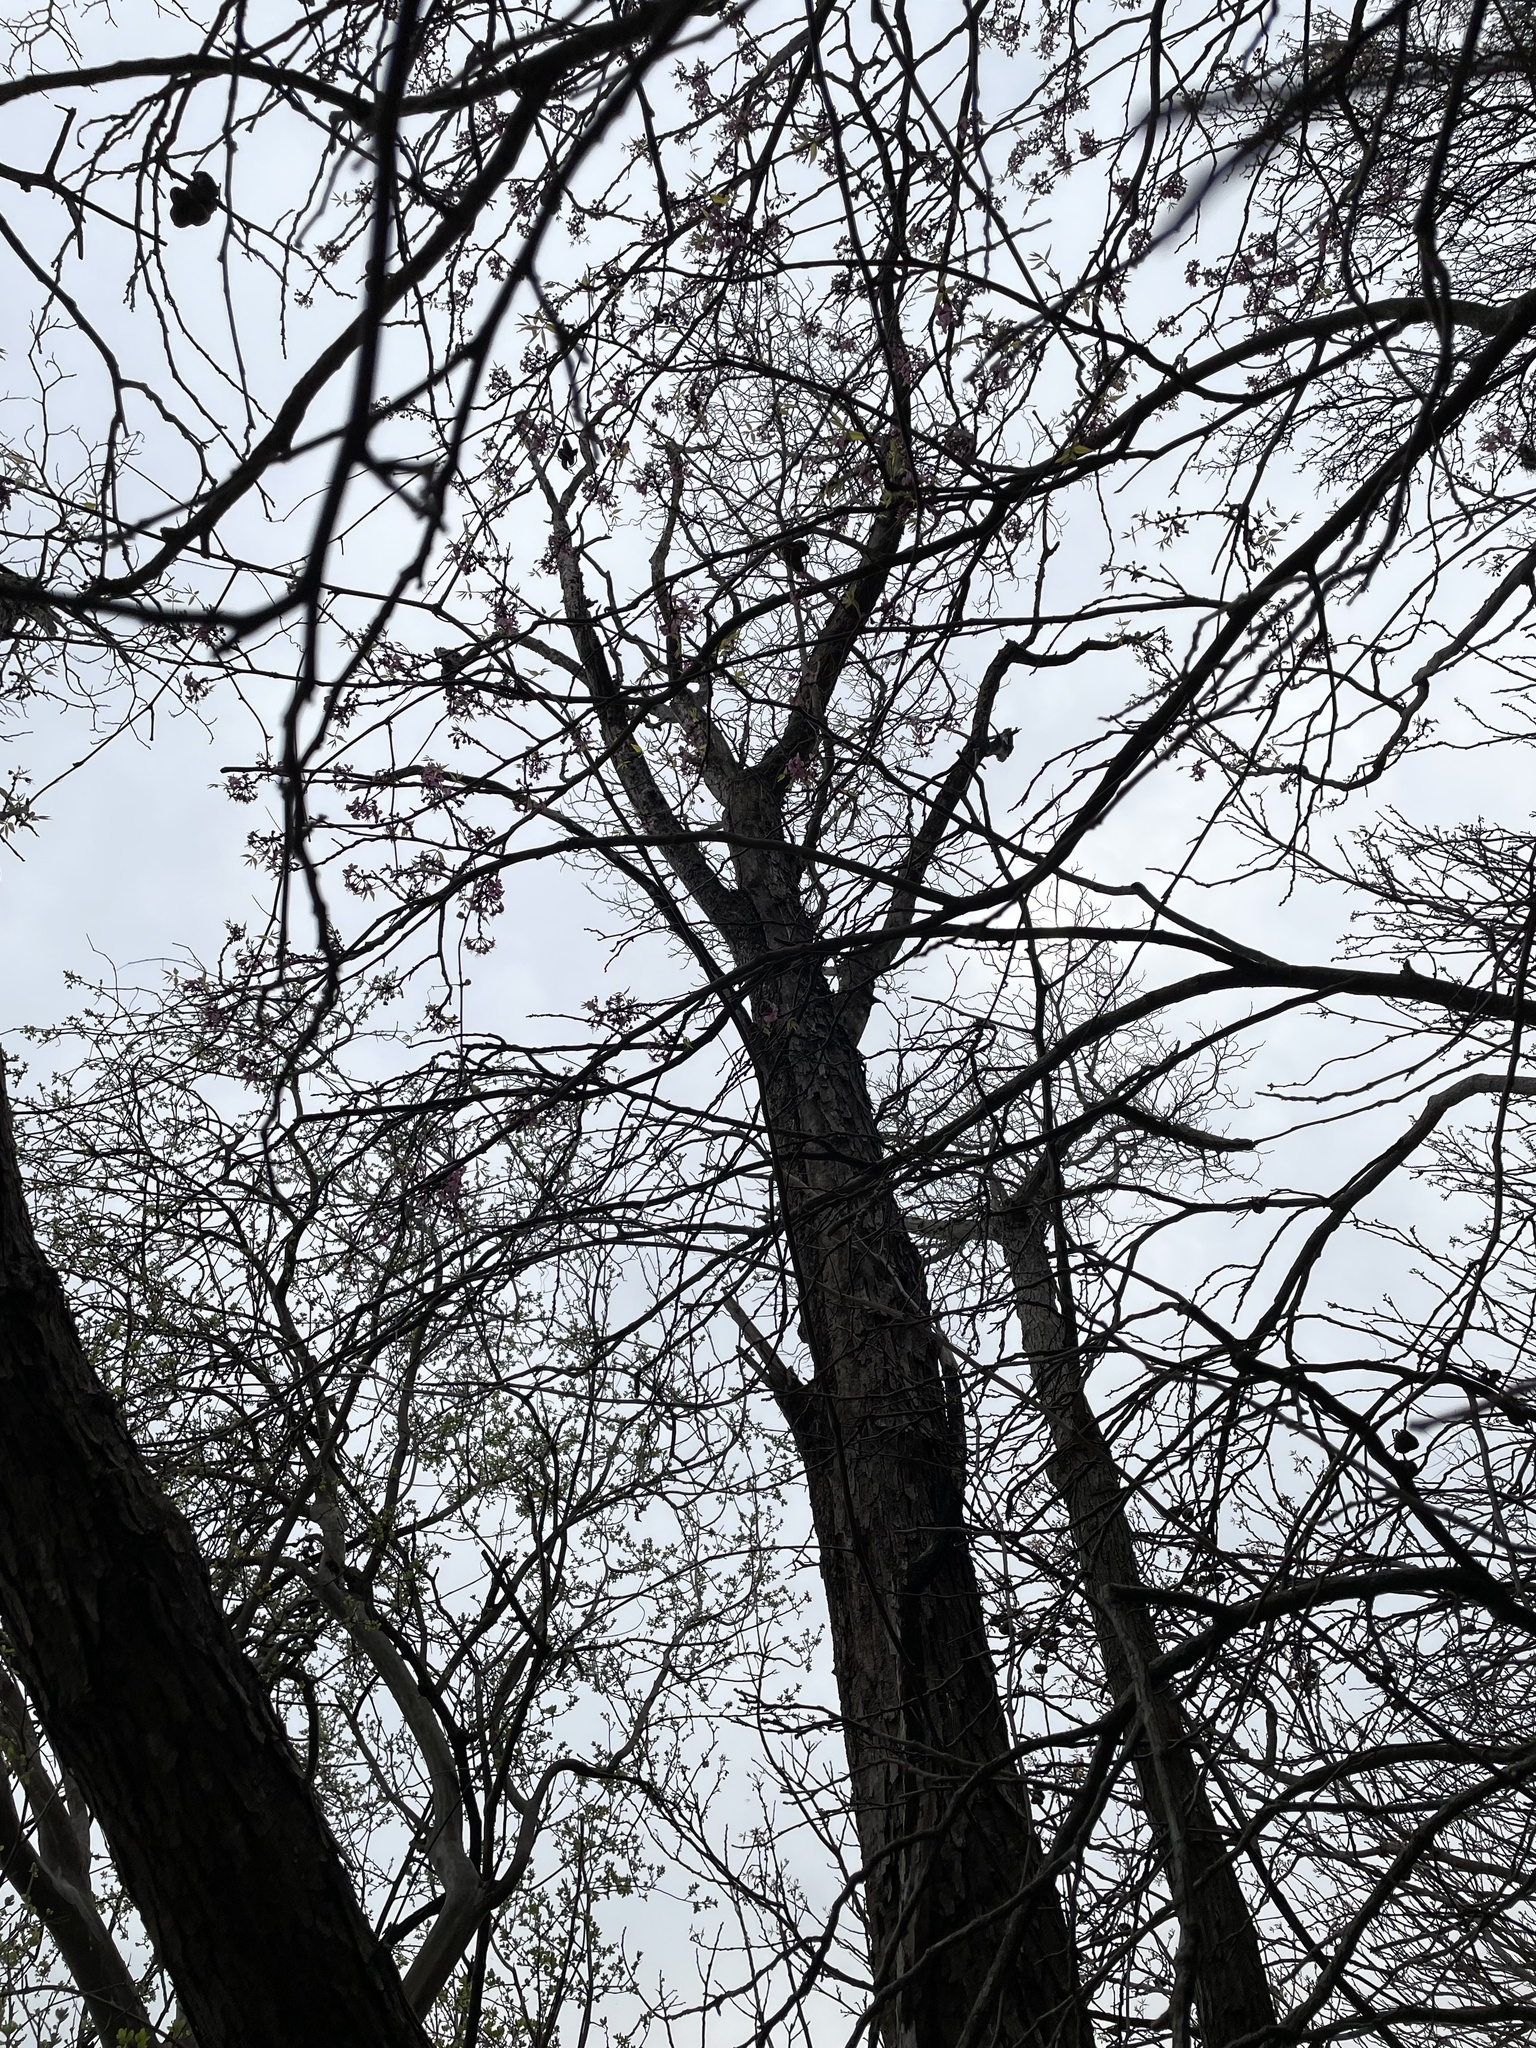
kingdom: Plantae
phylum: Tracheophyta
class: Magnoliopsida
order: Rosales
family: Moraceae
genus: Morus
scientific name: Morus rubra
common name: Red mulberry
